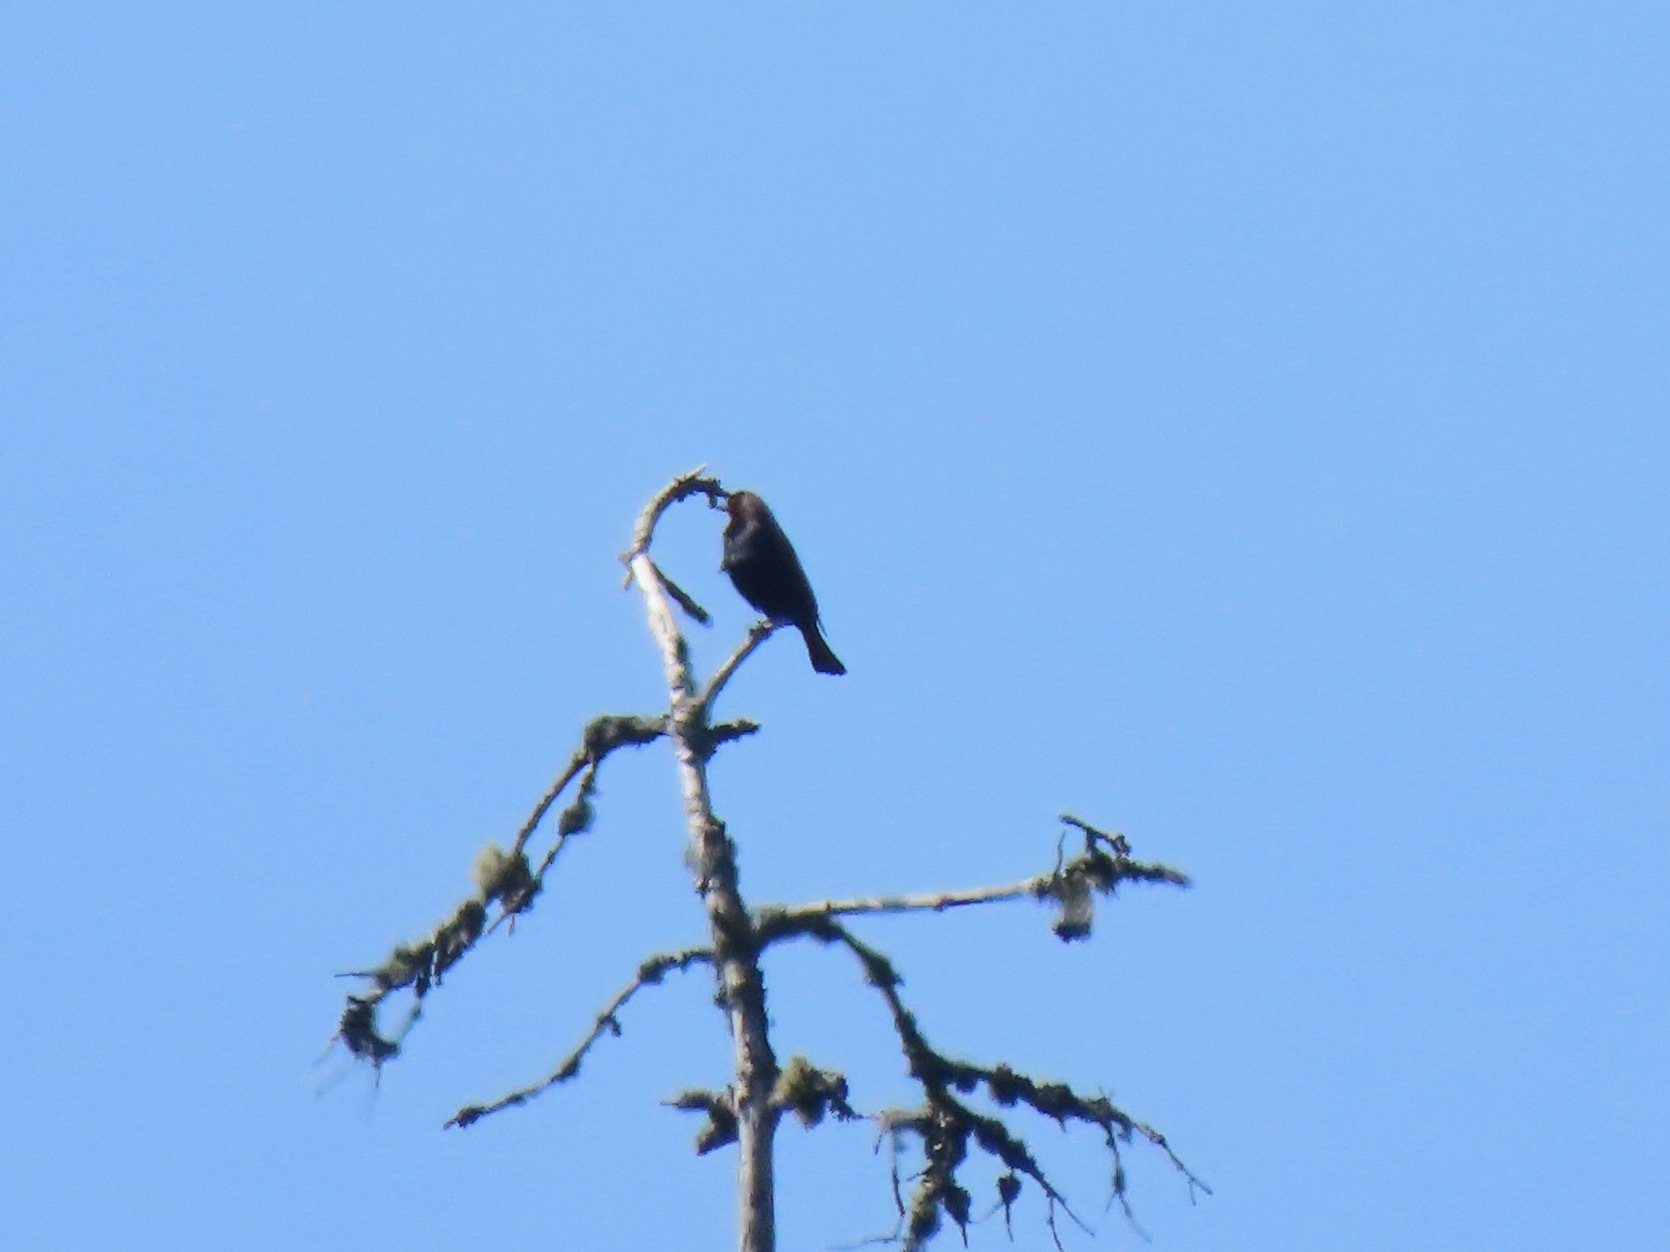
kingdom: Animalia
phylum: Chordata
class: Aves
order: Passeriformes
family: Icteridae
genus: Molothrus
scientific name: Molothrus ater
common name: Brown-headed cowbird
